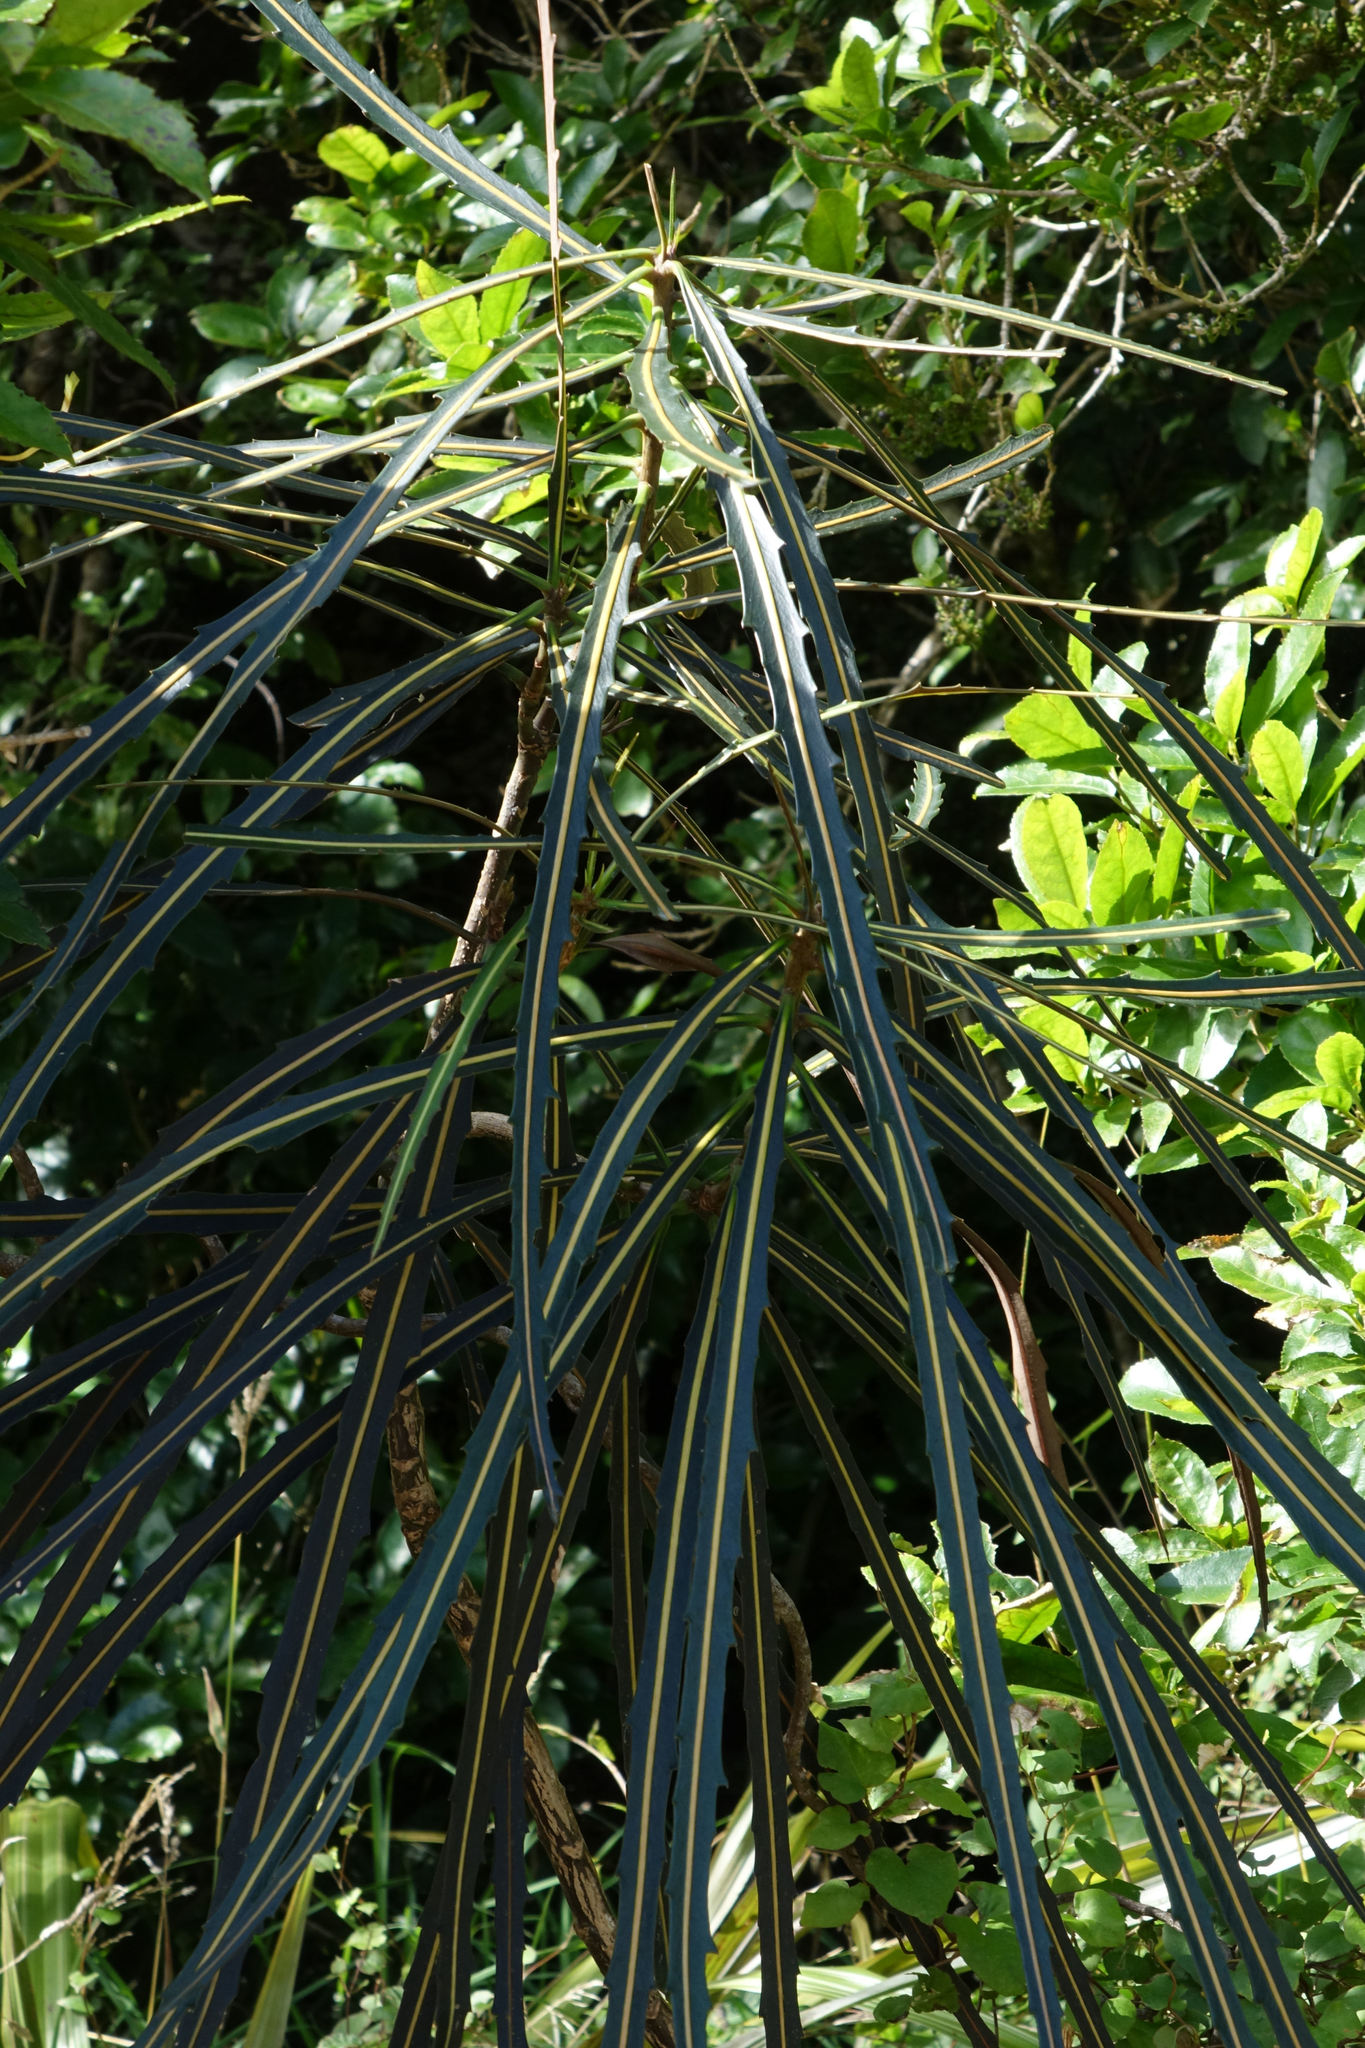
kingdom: Plantae
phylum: Tracheophyta
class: Magnoliopsida
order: Apiales
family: Araliaceae
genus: Pseudopanax
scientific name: Pseudopanax crassifolius
